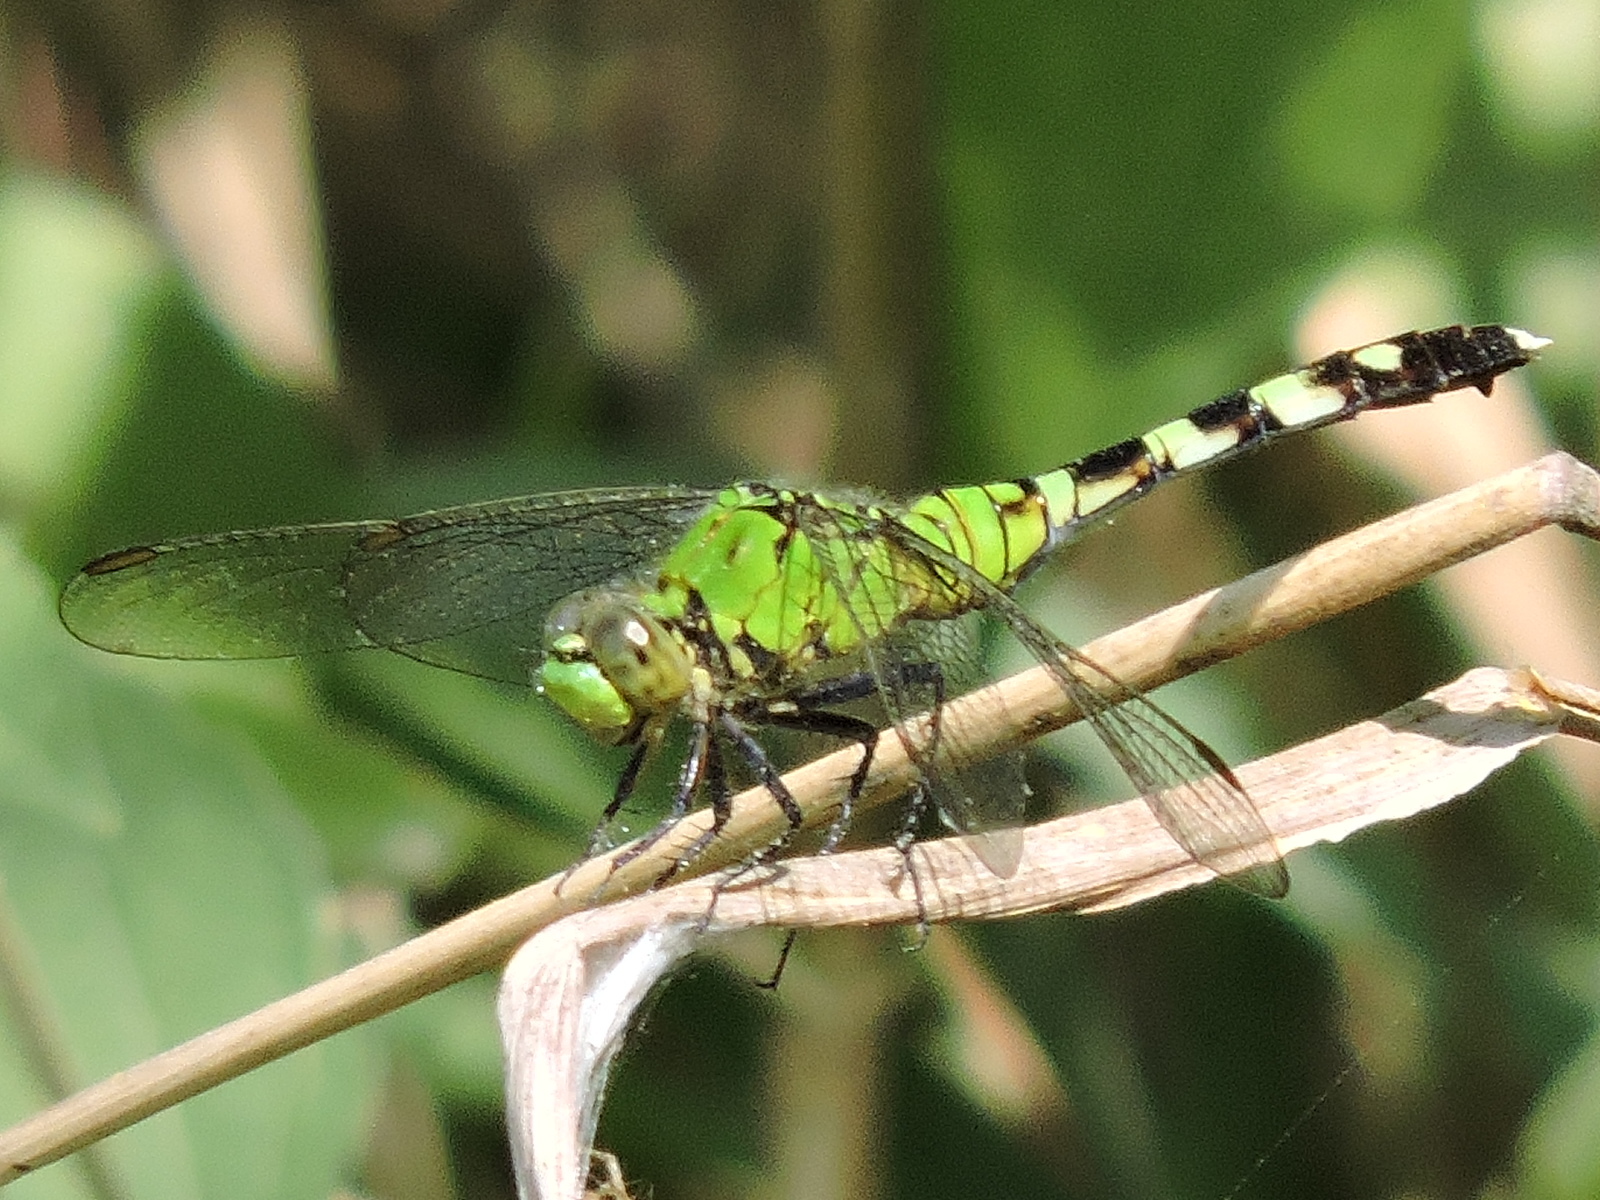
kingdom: Animalia
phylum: Arthropoda
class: Insecta
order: Odonata
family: Libellulidae
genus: Erythemis
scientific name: Erythemis simplicicollis
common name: Eastern pondhawk
